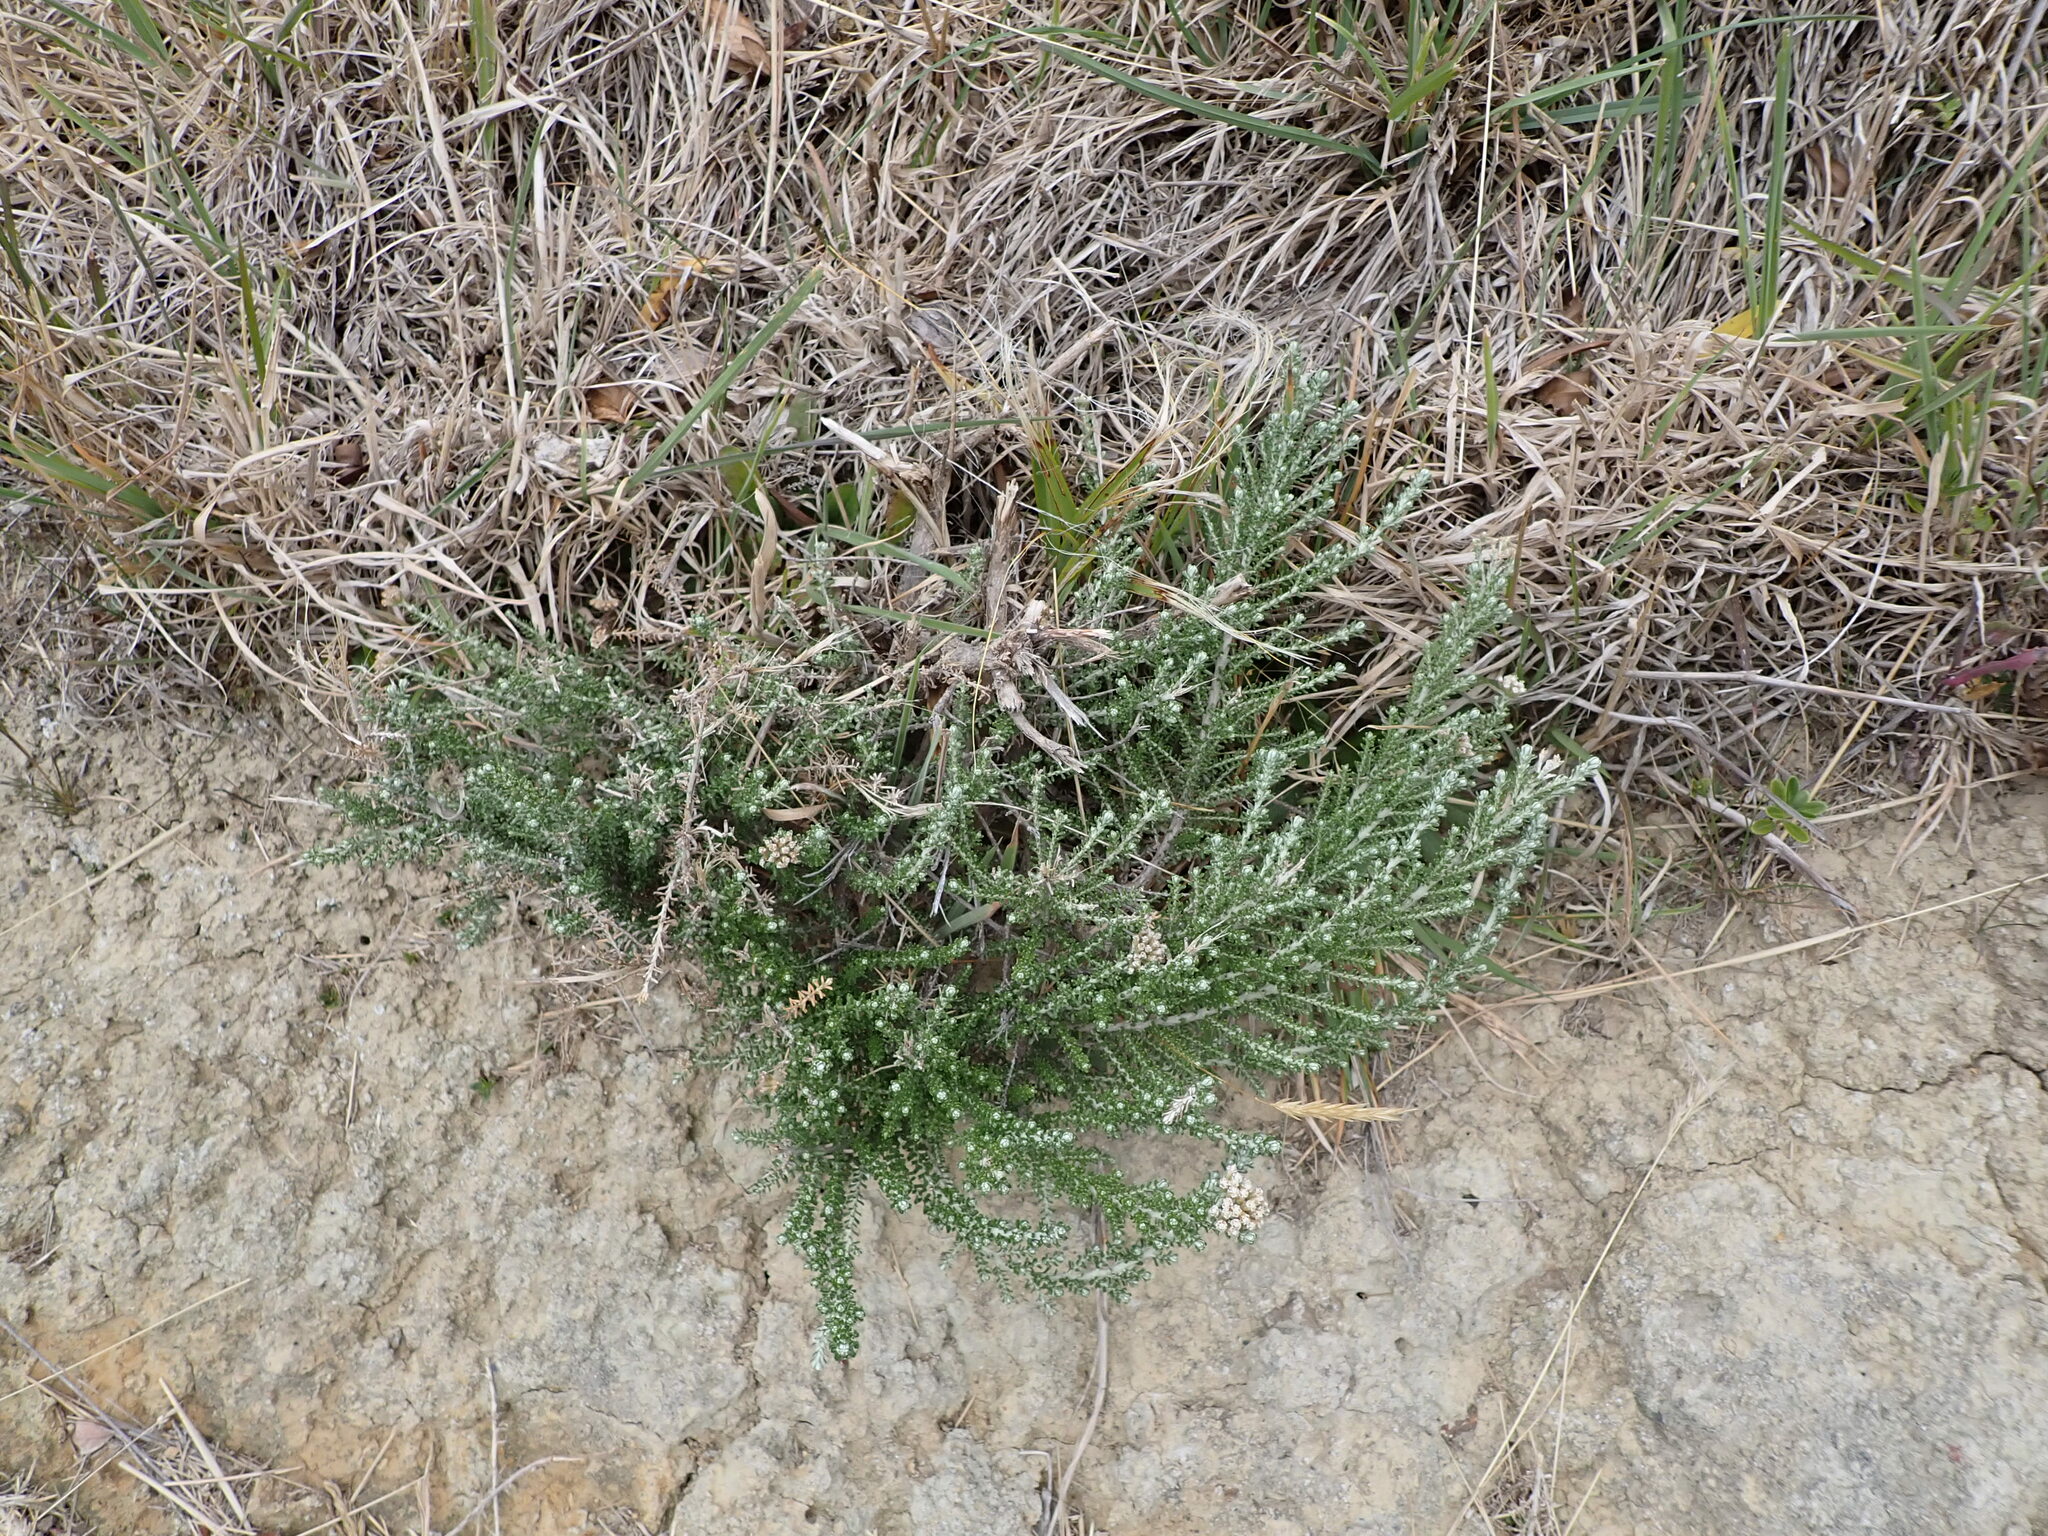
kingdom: Plantae
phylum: Tracheophyta
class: Magnoliopsida
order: Asterales
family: Asteraceae
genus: Ozothamnus
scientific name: Ozothamnus leptophyllus
